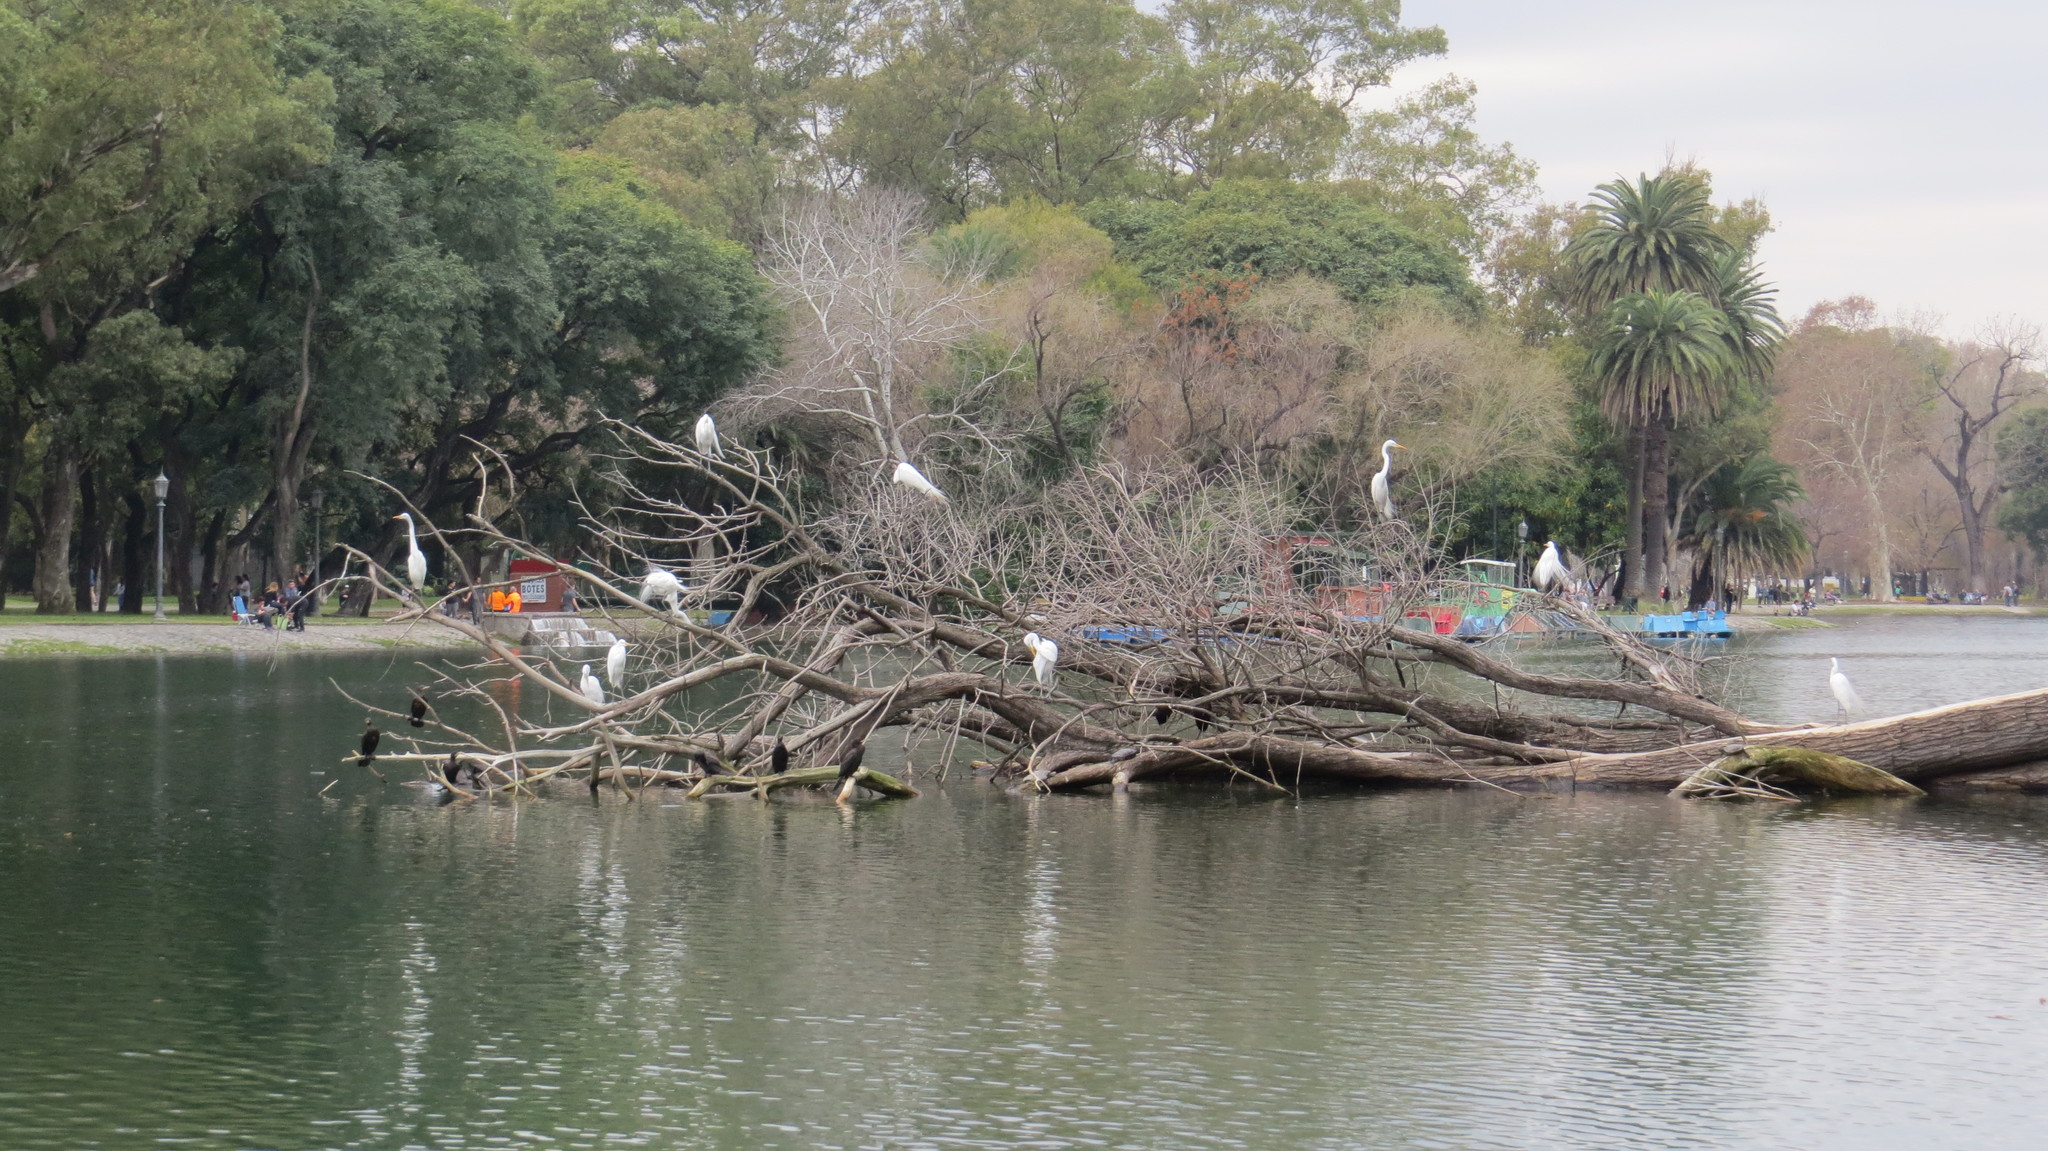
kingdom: Animalia
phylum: Chordata
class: Aves
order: Pelecaniformes
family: Ardeidae
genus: Ardea
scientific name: Ardea alba
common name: Great egret
